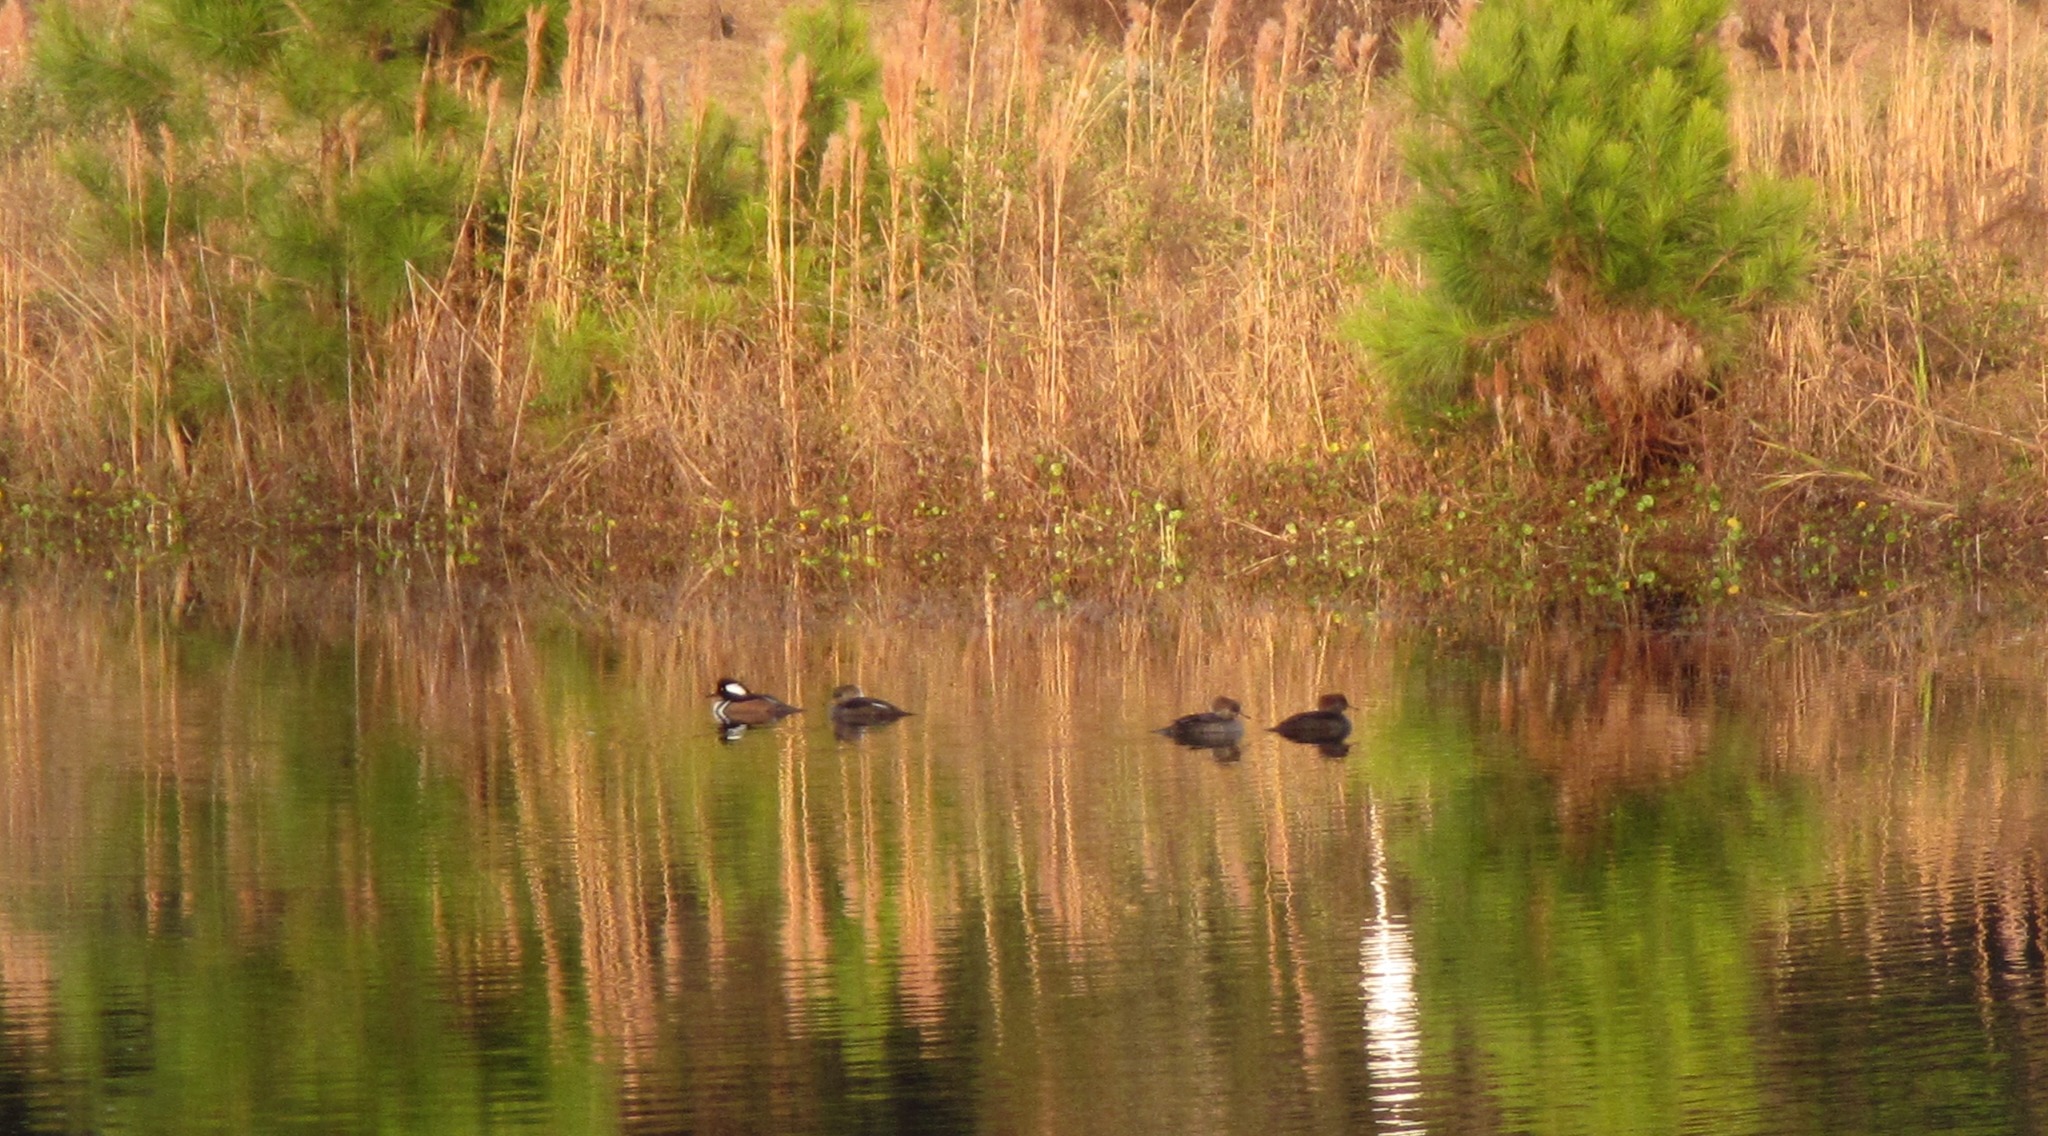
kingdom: Animalia
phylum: Chordata
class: Aves
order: Anseriformes
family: Anatidae
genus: Lophodytes
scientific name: Lophodytes cucullatus
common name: Hooded merganser
